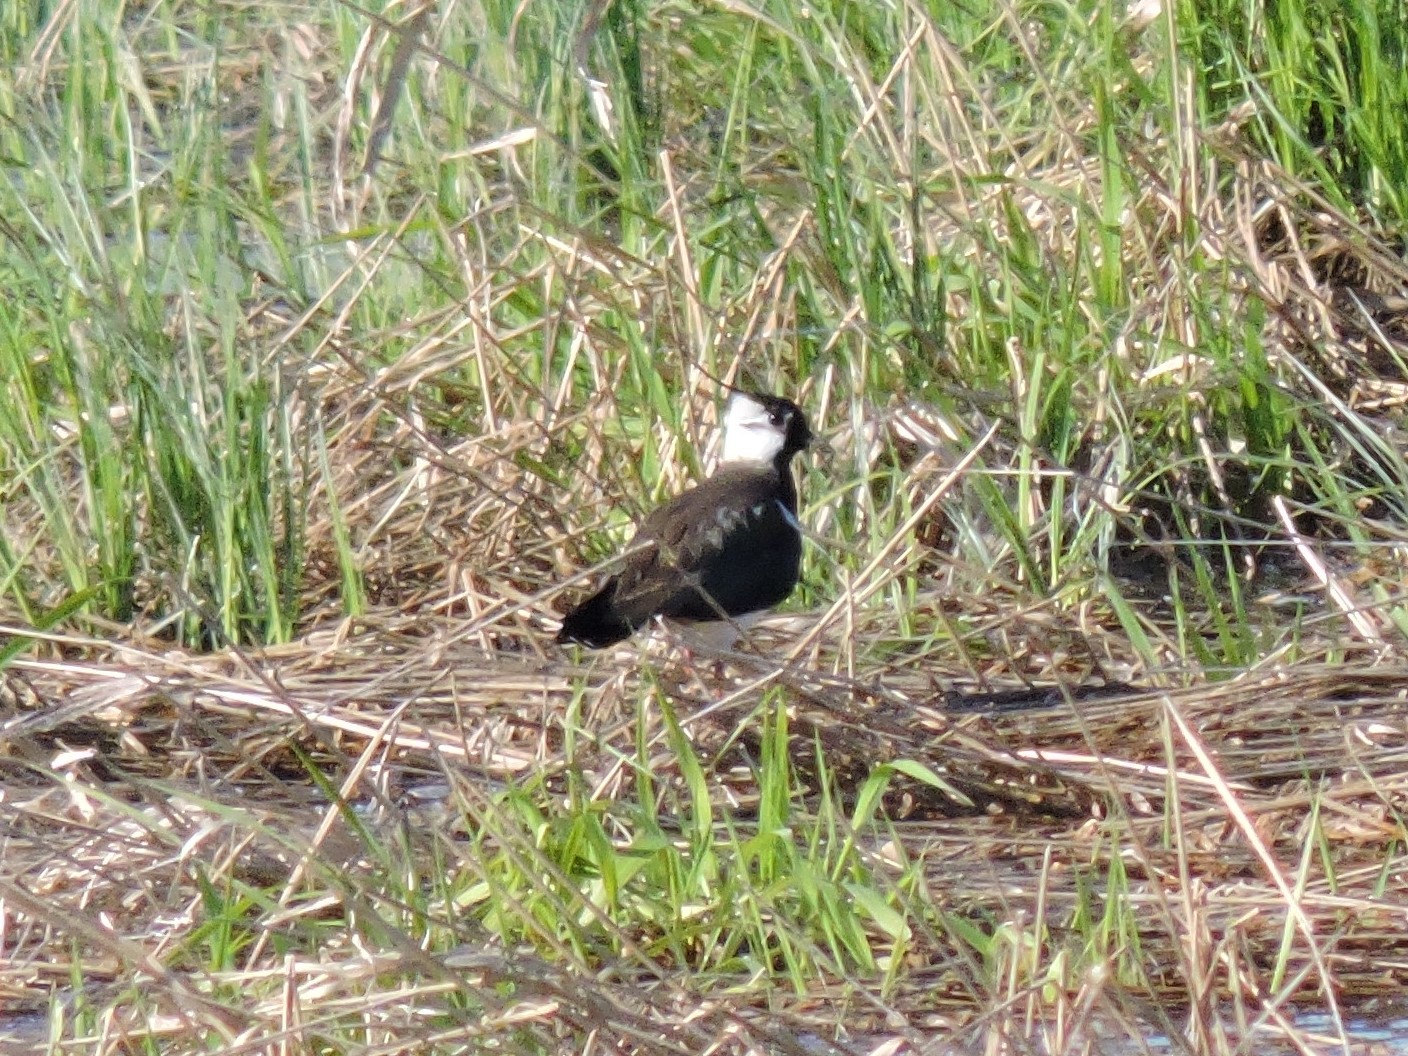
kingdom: Animalia
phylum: Chordata
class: Aves
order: Charadriiformes
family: Charadriidae
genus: Vanellus
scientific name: Vanellus vanellus
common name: Northern lapwing
